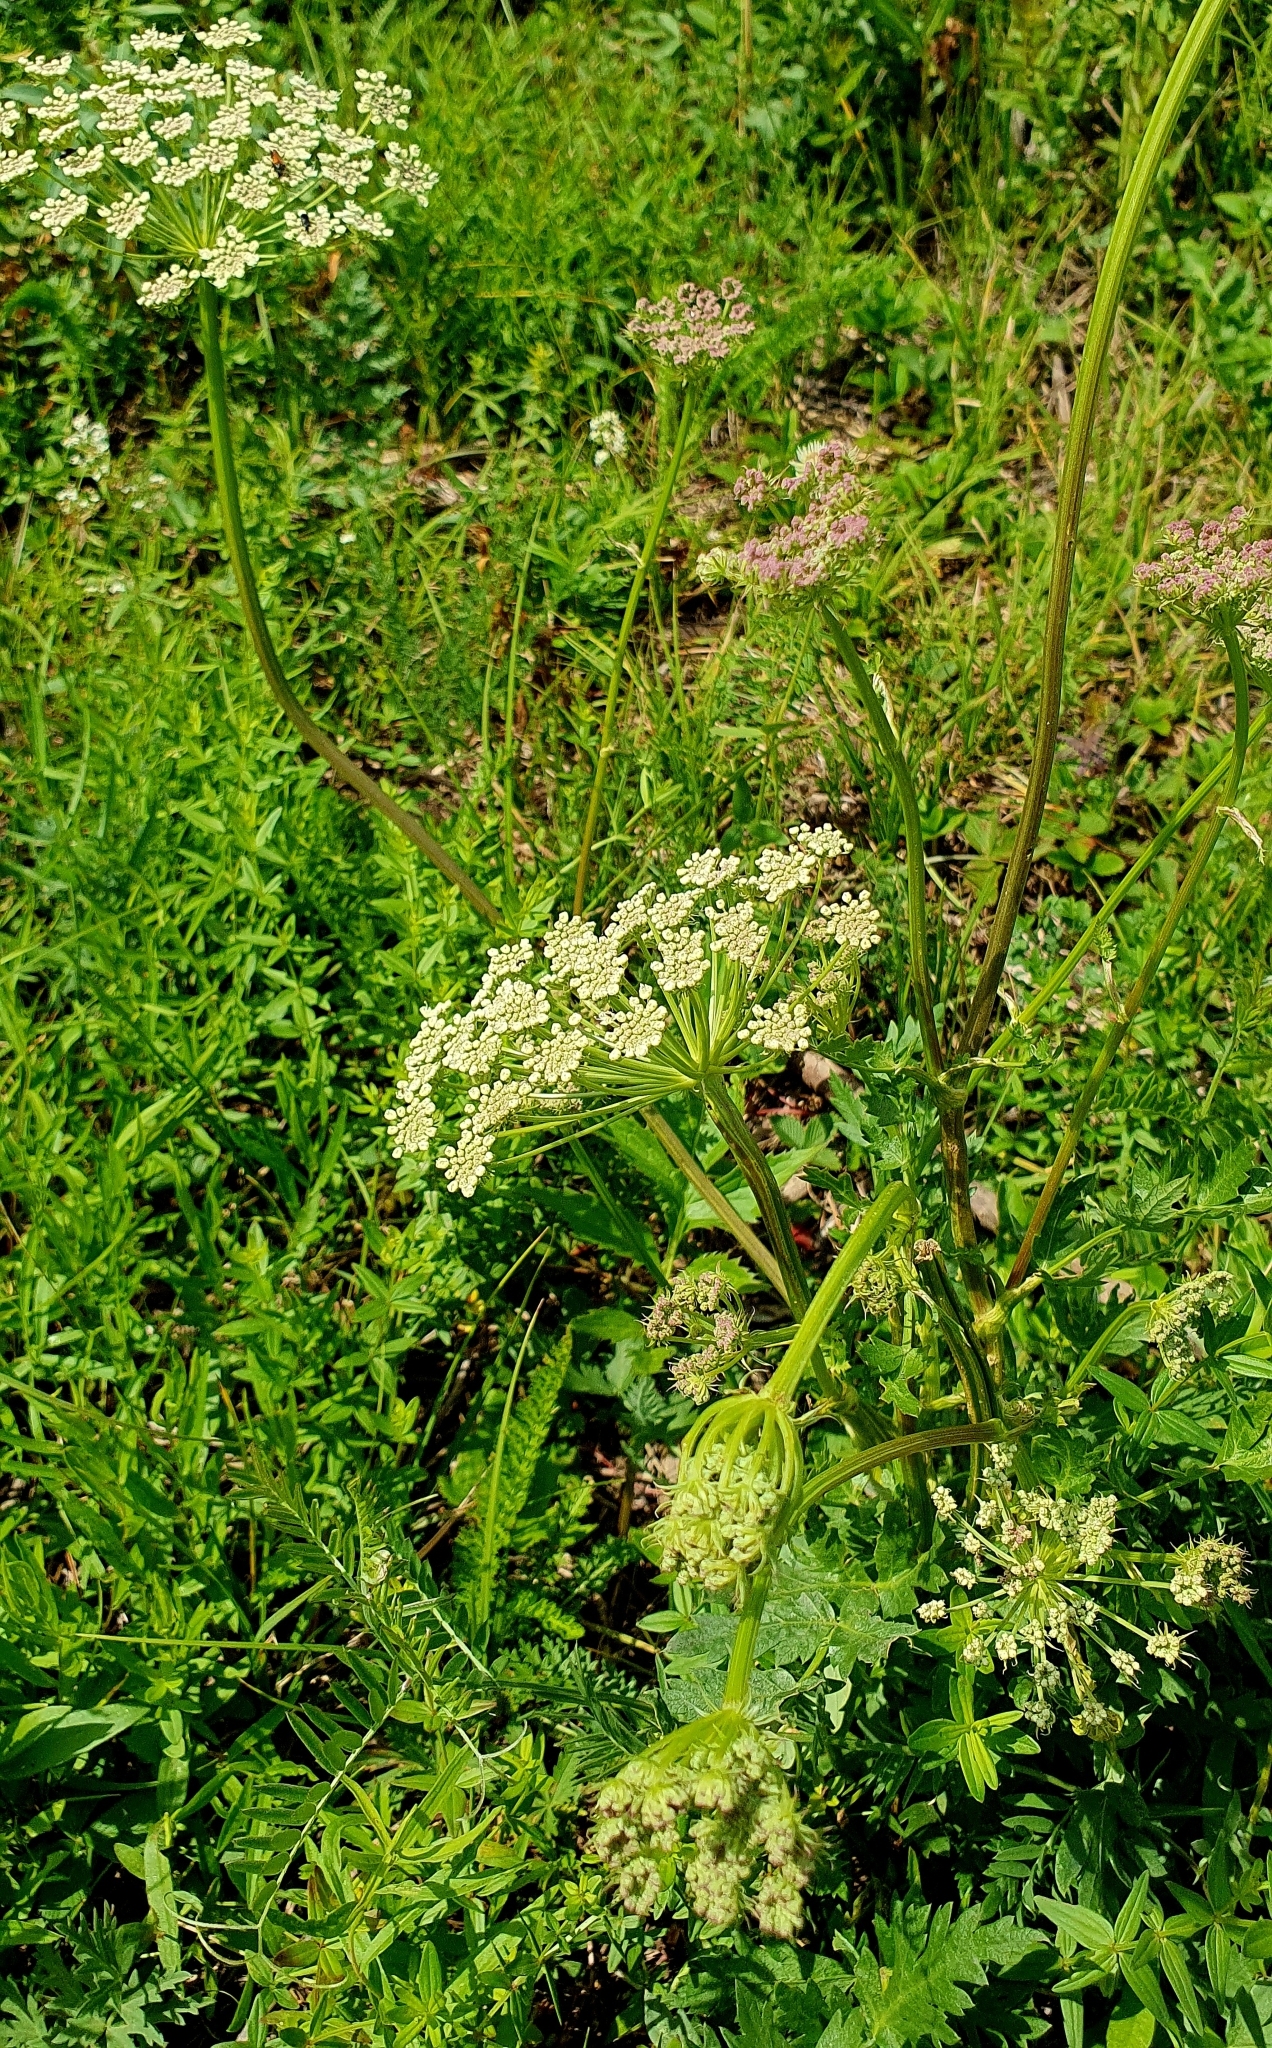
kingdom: Plantae
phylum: Tracheophyta
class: Magnoliopsida
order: Apiales
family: Apiaceae
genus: Seseli
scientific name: Seseli libanotis
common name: Mooncarrot
